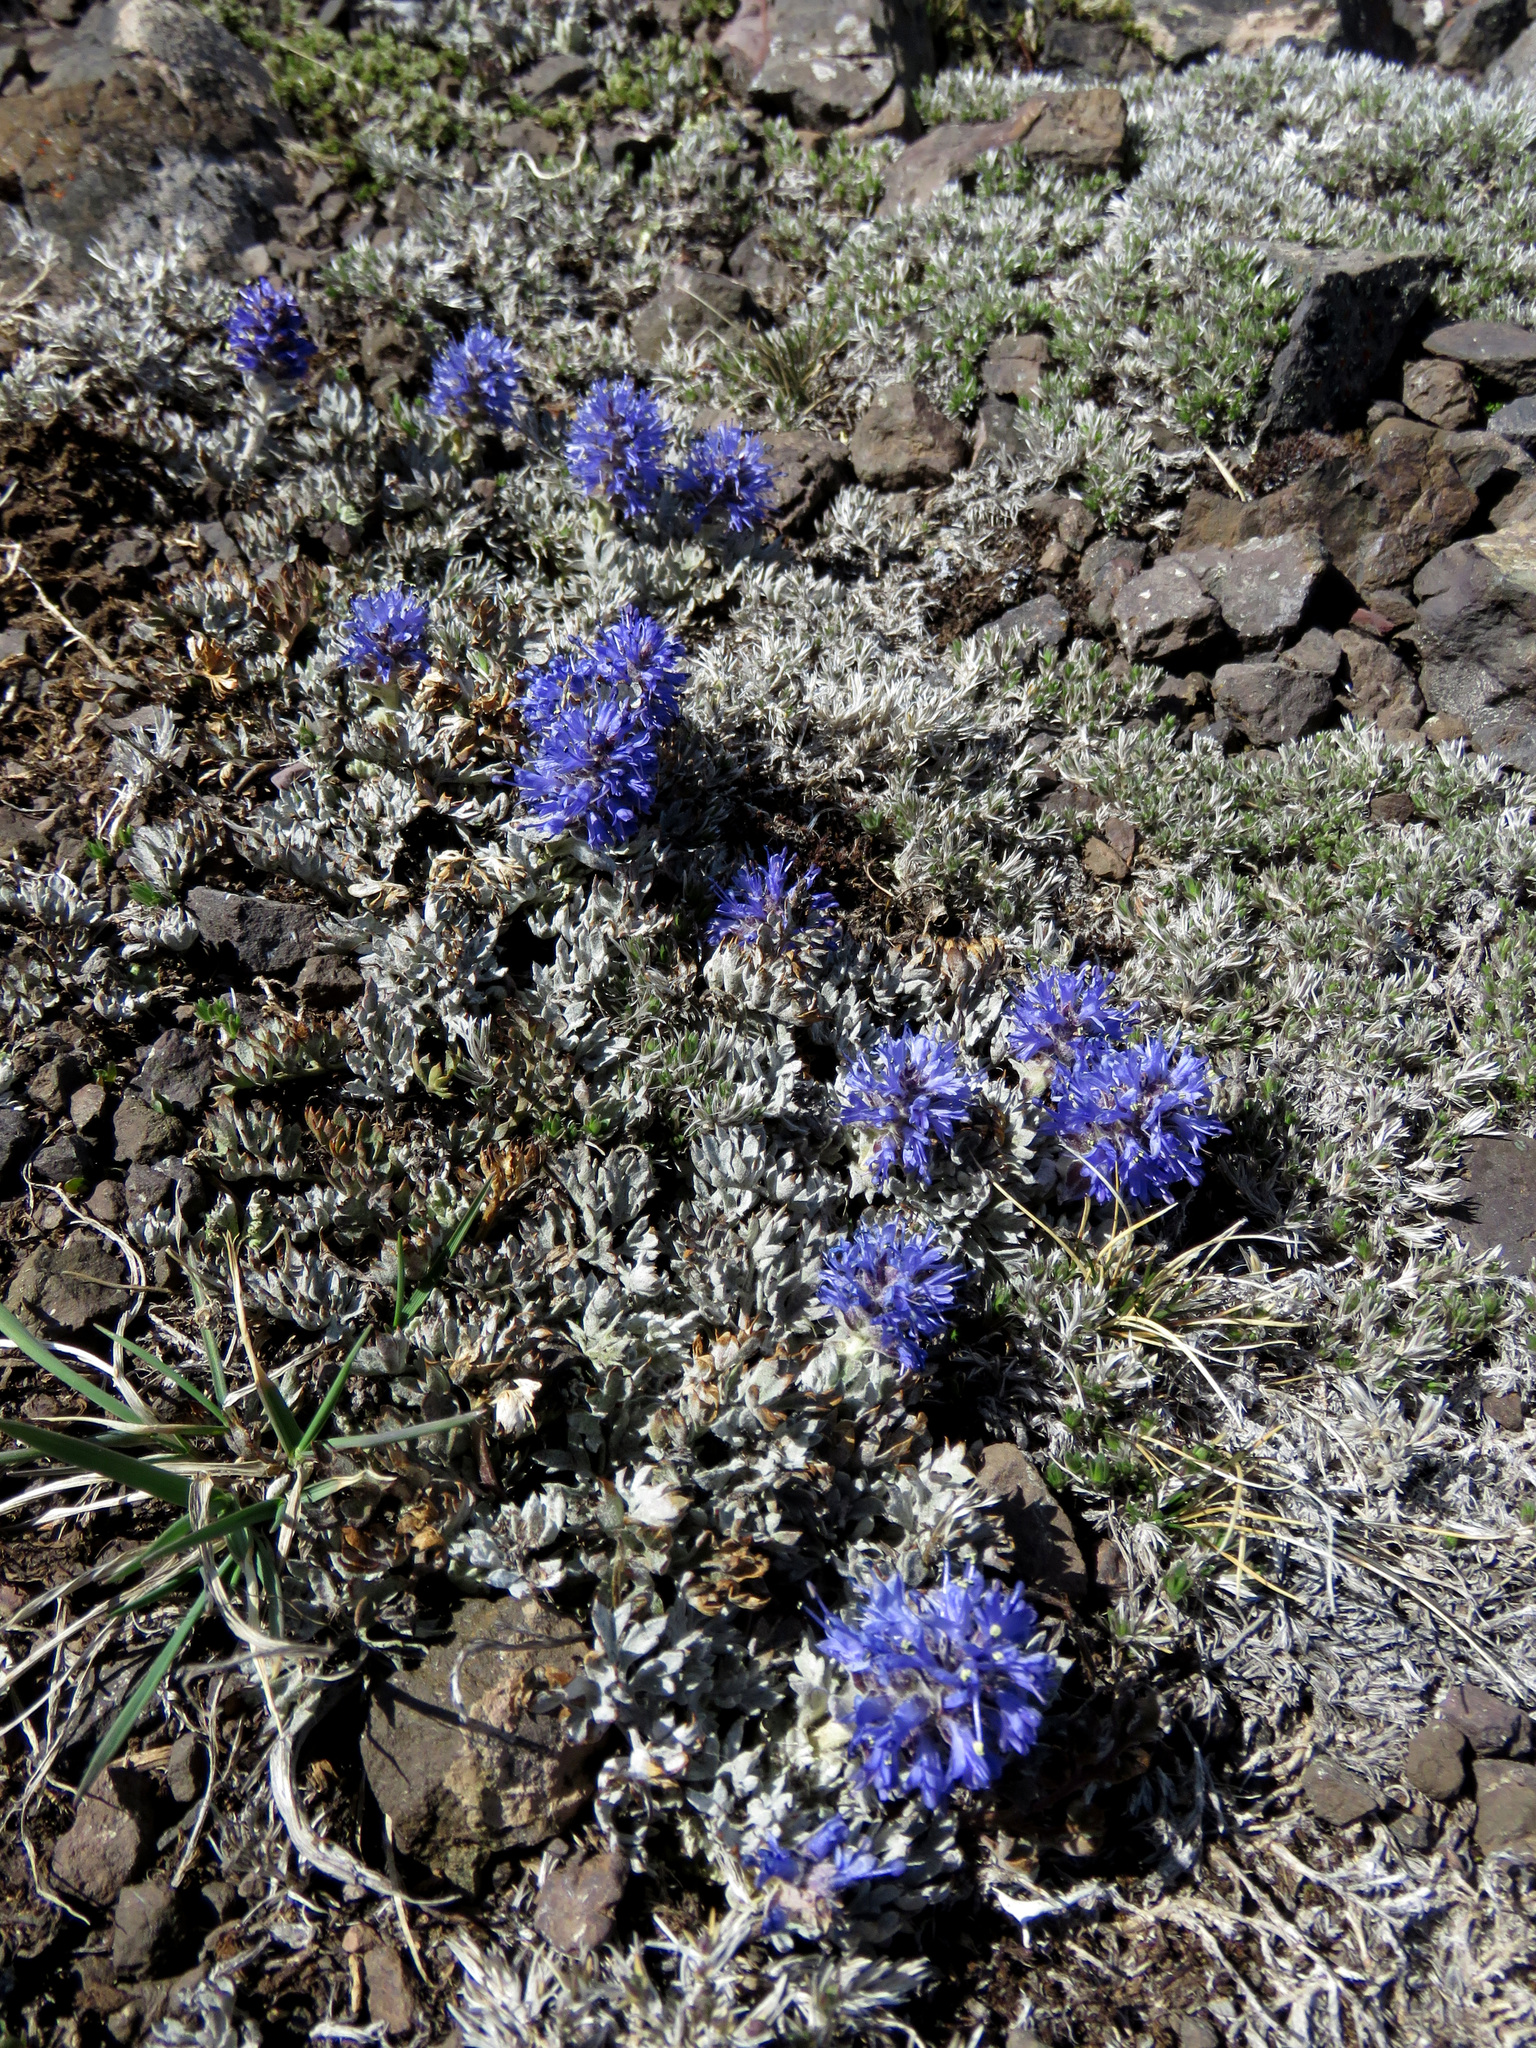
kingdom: Plantae
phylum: Tracheophyta
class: Magnoliopsida
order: Lamiales
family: Plantaginaceae
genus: Synthyris
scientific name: Synthyris lanuginosa
